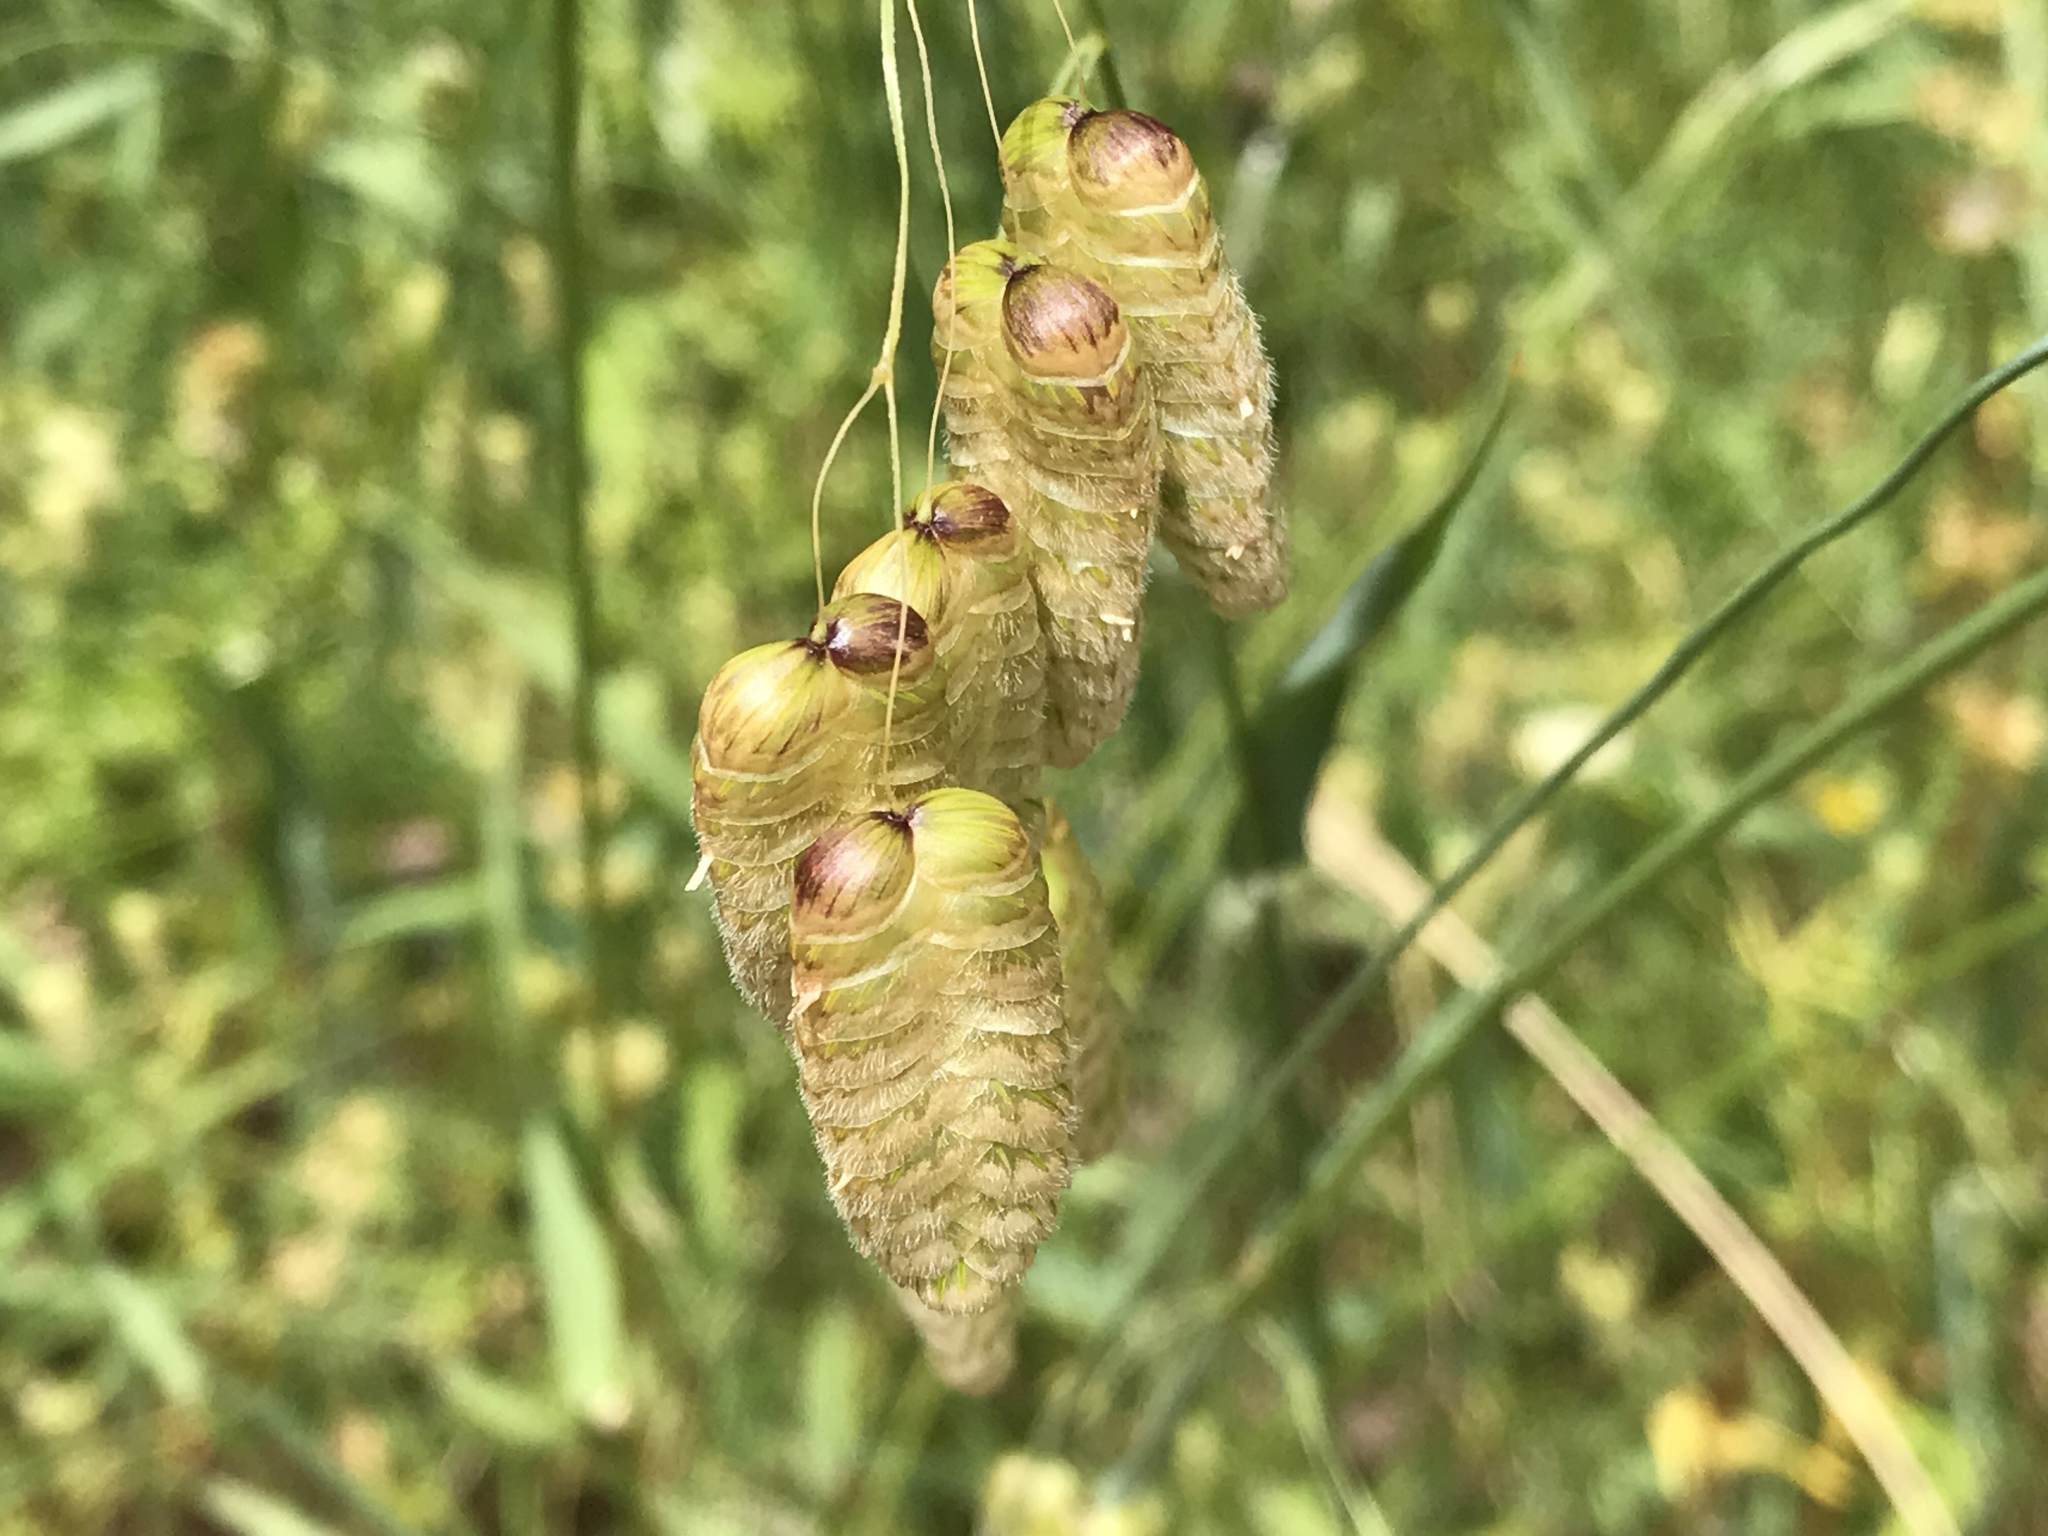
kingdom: Plantae
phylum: Tracheophyta
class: Liliopsida
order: Poales
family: Poaceae
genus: Briza
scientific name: Briza maxima
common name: Big quakinggrass
